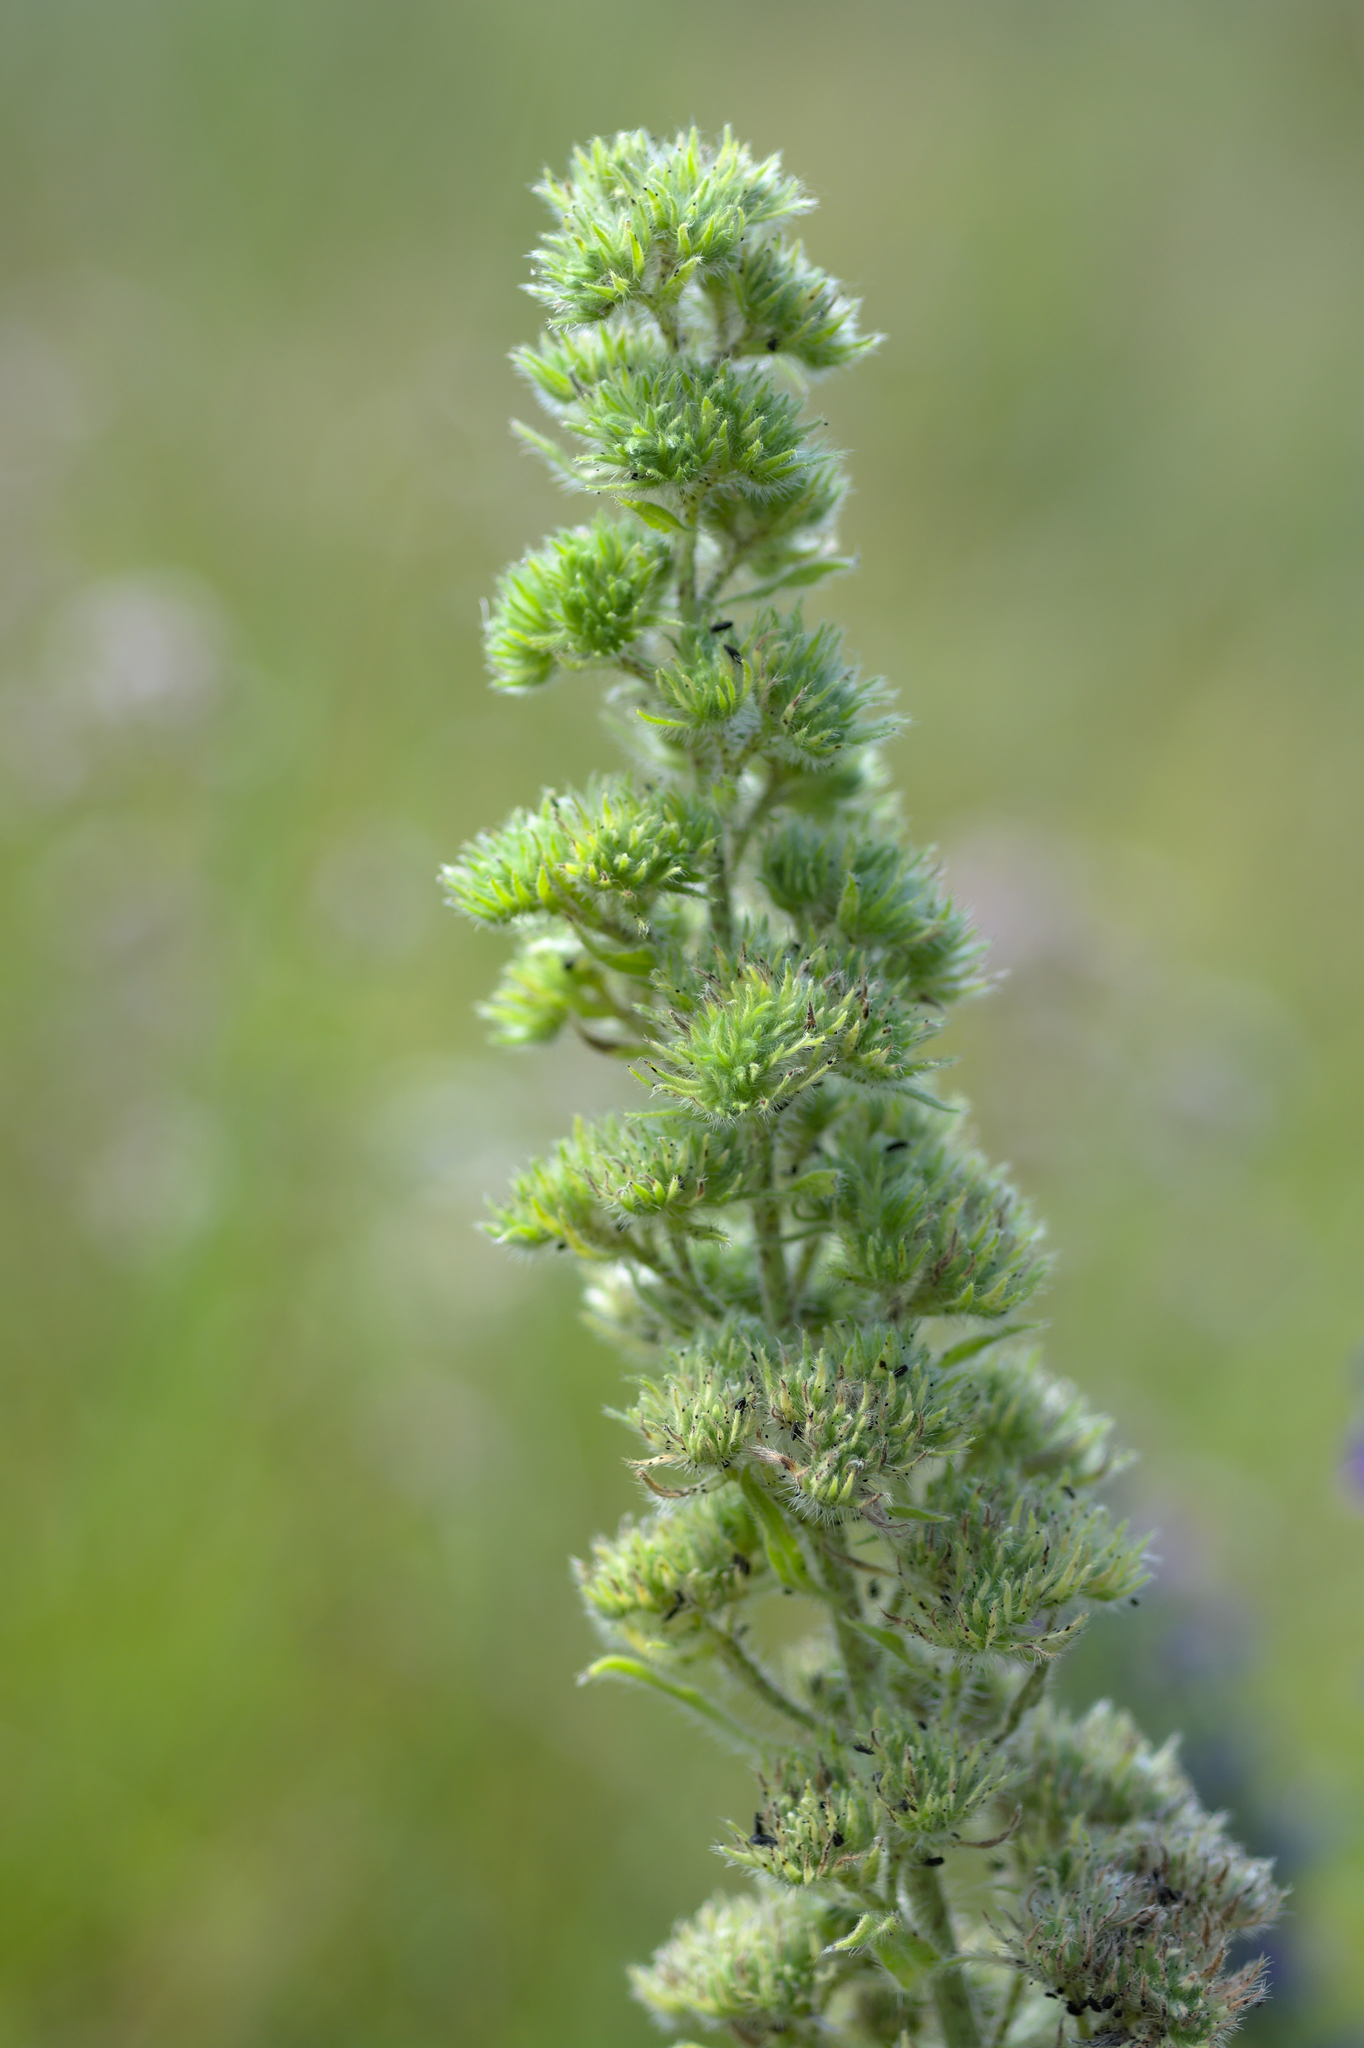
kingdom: Animalia
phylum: Arthropoda
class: Arachnida
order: Trombidiformes
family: Eriophyidae
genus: Aceria
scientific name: Aceria echii
